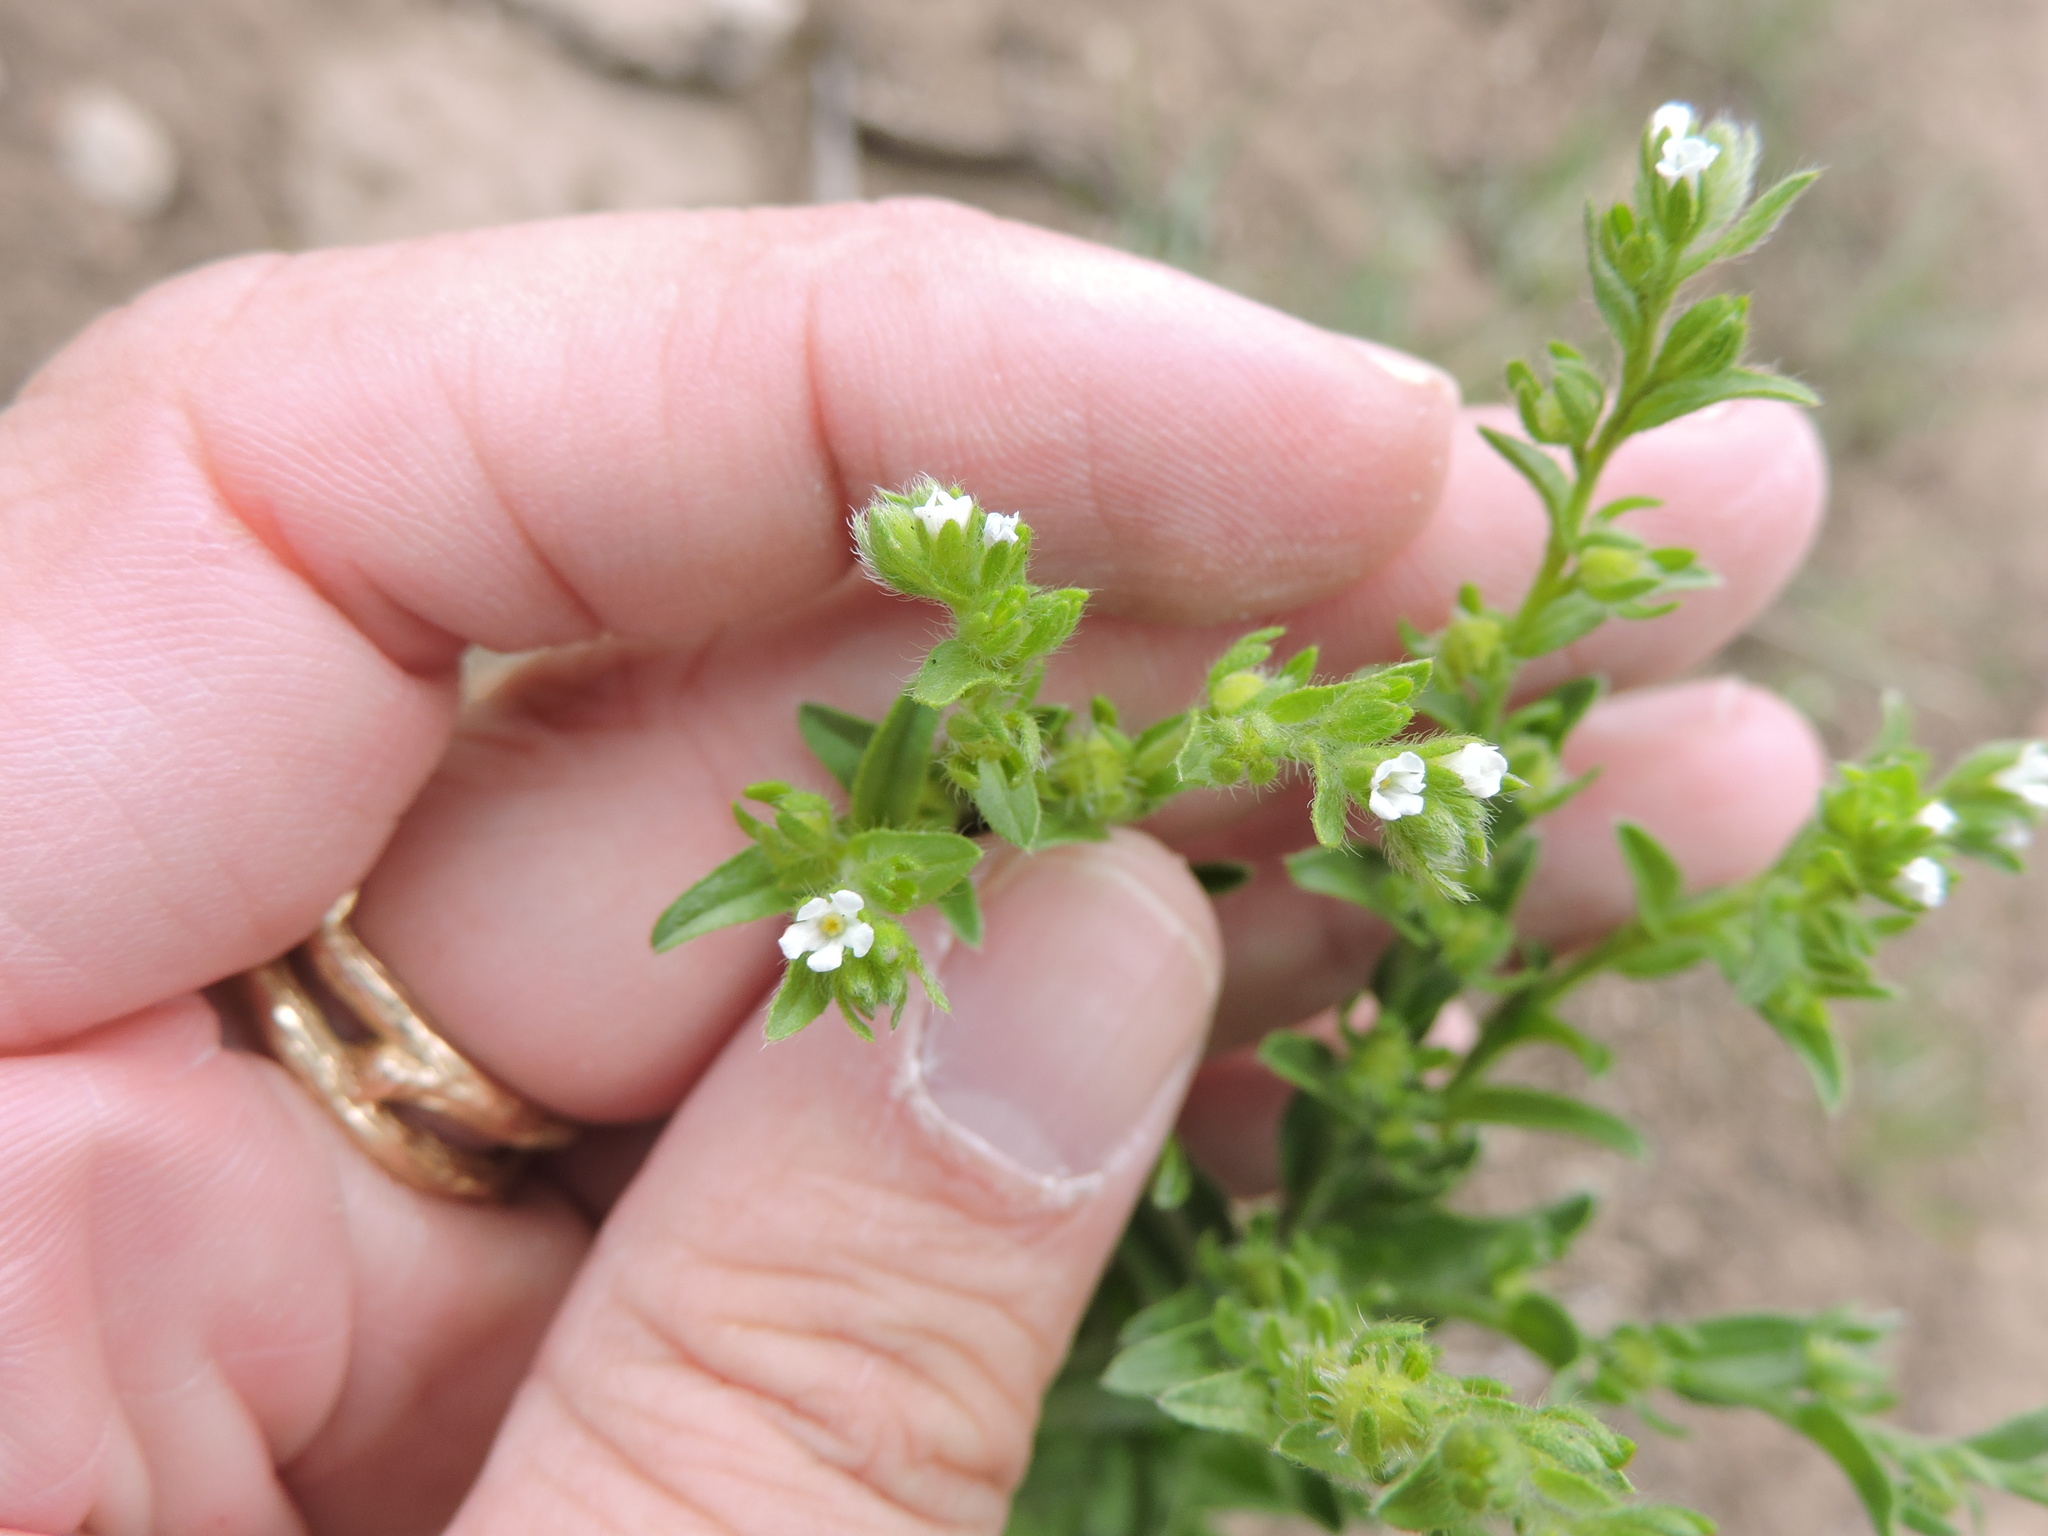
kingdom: Plantae
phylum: Tracheophyta
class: Magnoliopsida
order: Boraginales
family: Boraginaceae
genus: Lappula
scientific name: Lappula occidentalis
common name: Western stickseed
